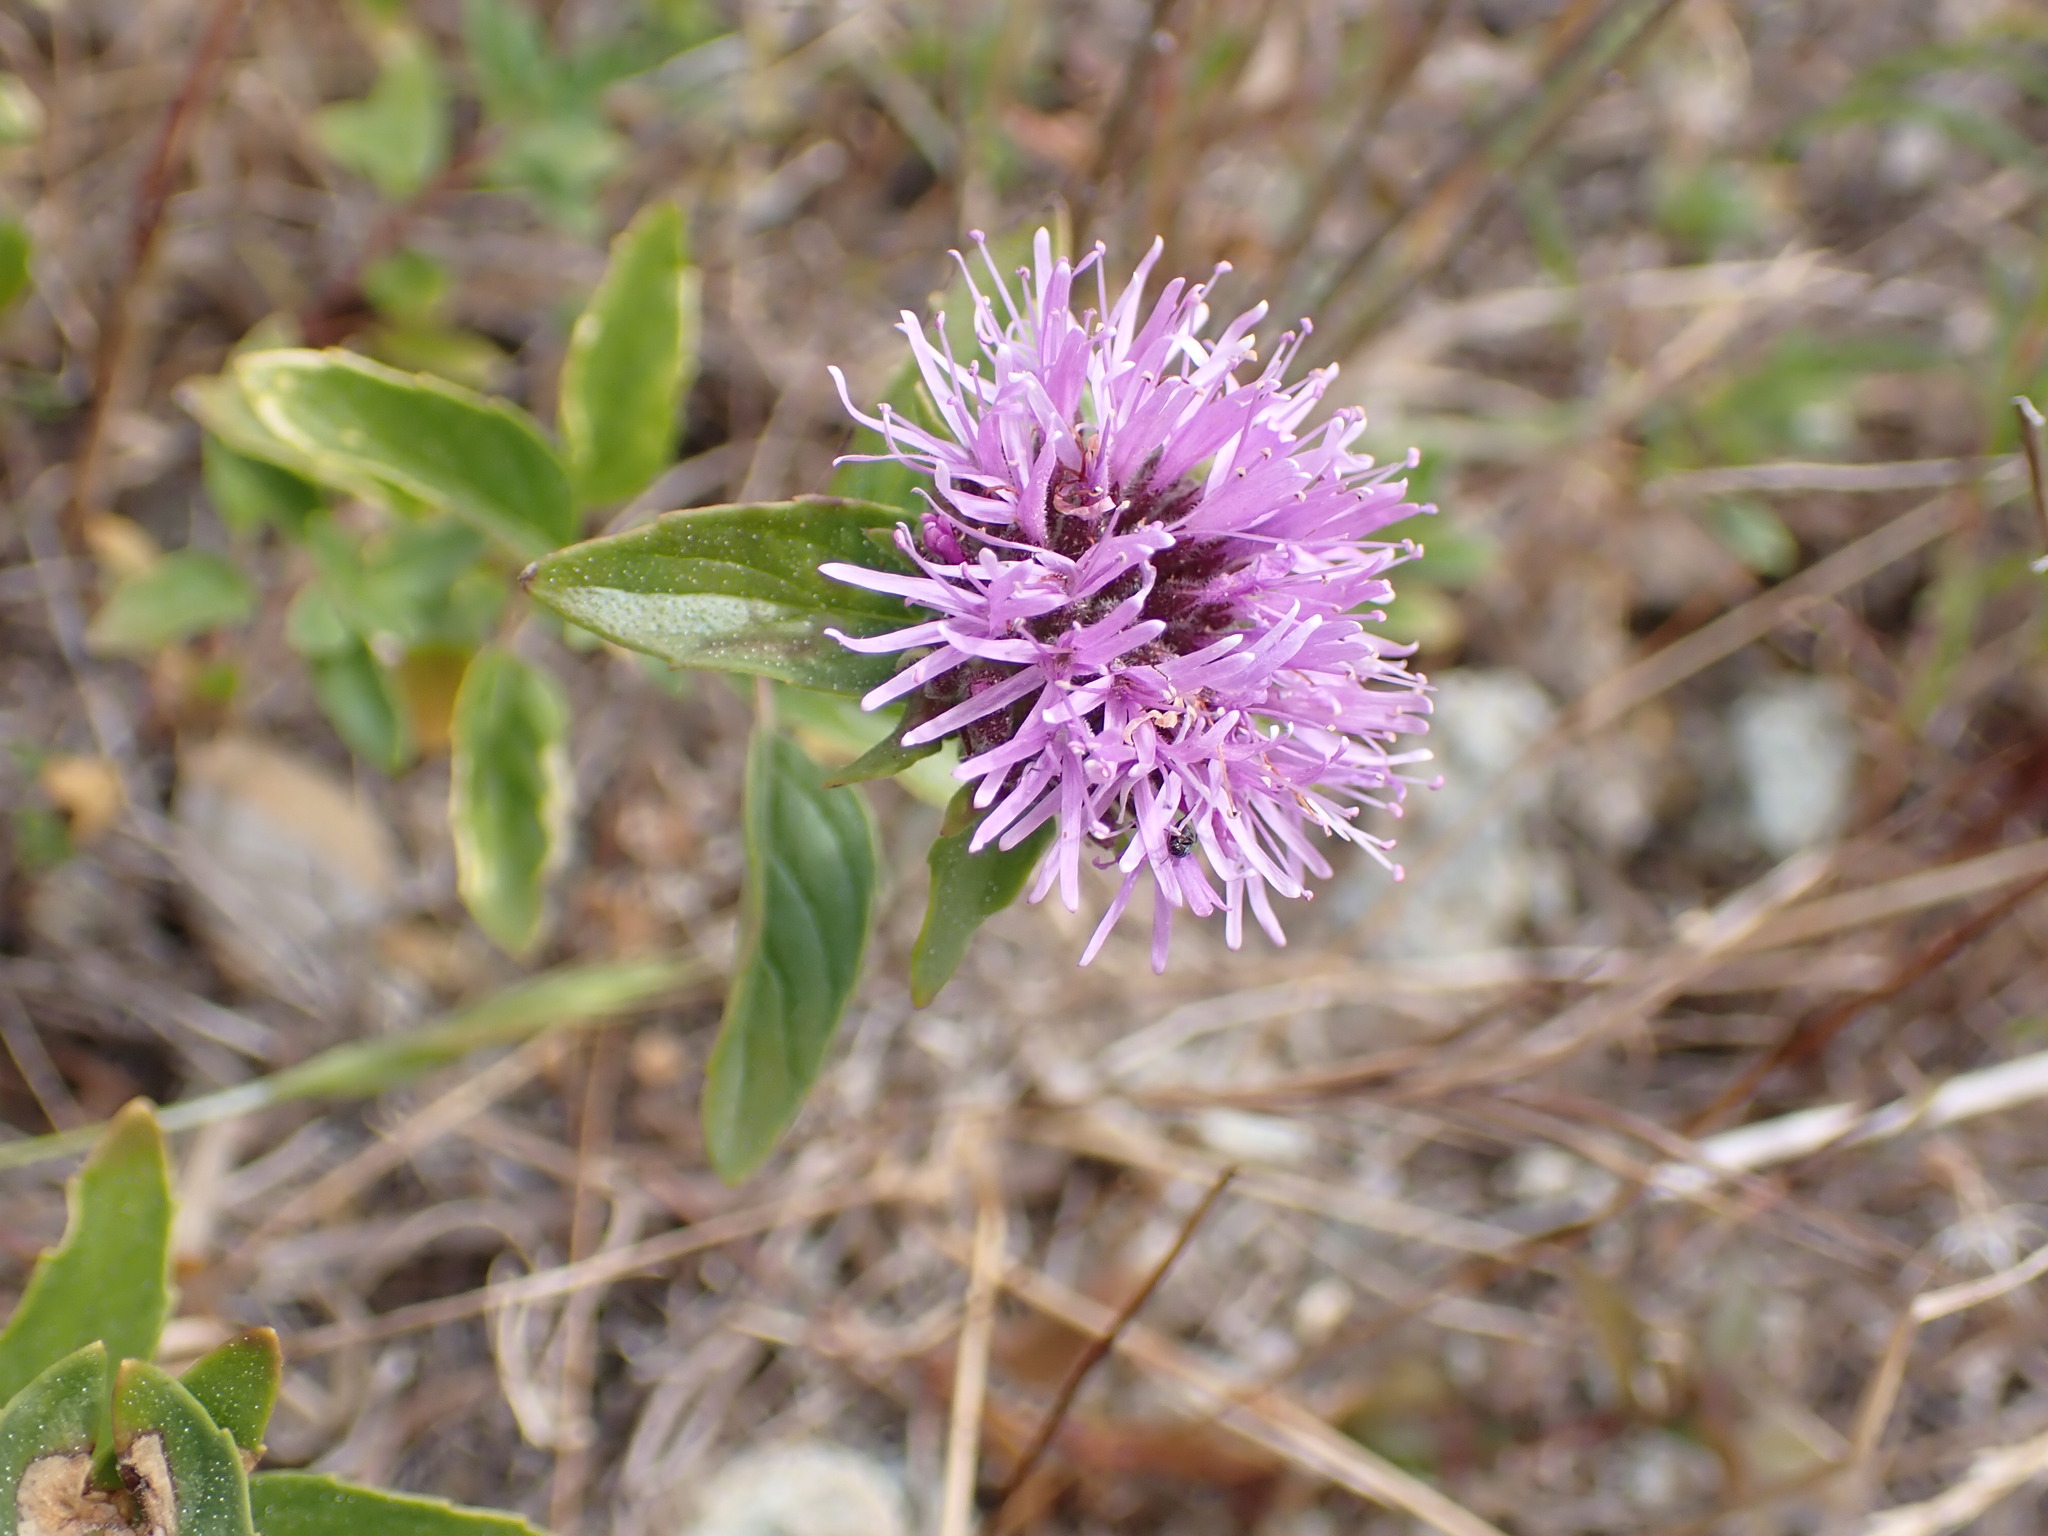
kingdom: Plantae
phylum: Tracheophyta
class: Magnoliopsida
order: Lamiales
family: Lamiaceae
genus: Monardella
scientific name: Monardella odoratissima
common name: Pacific monardella
